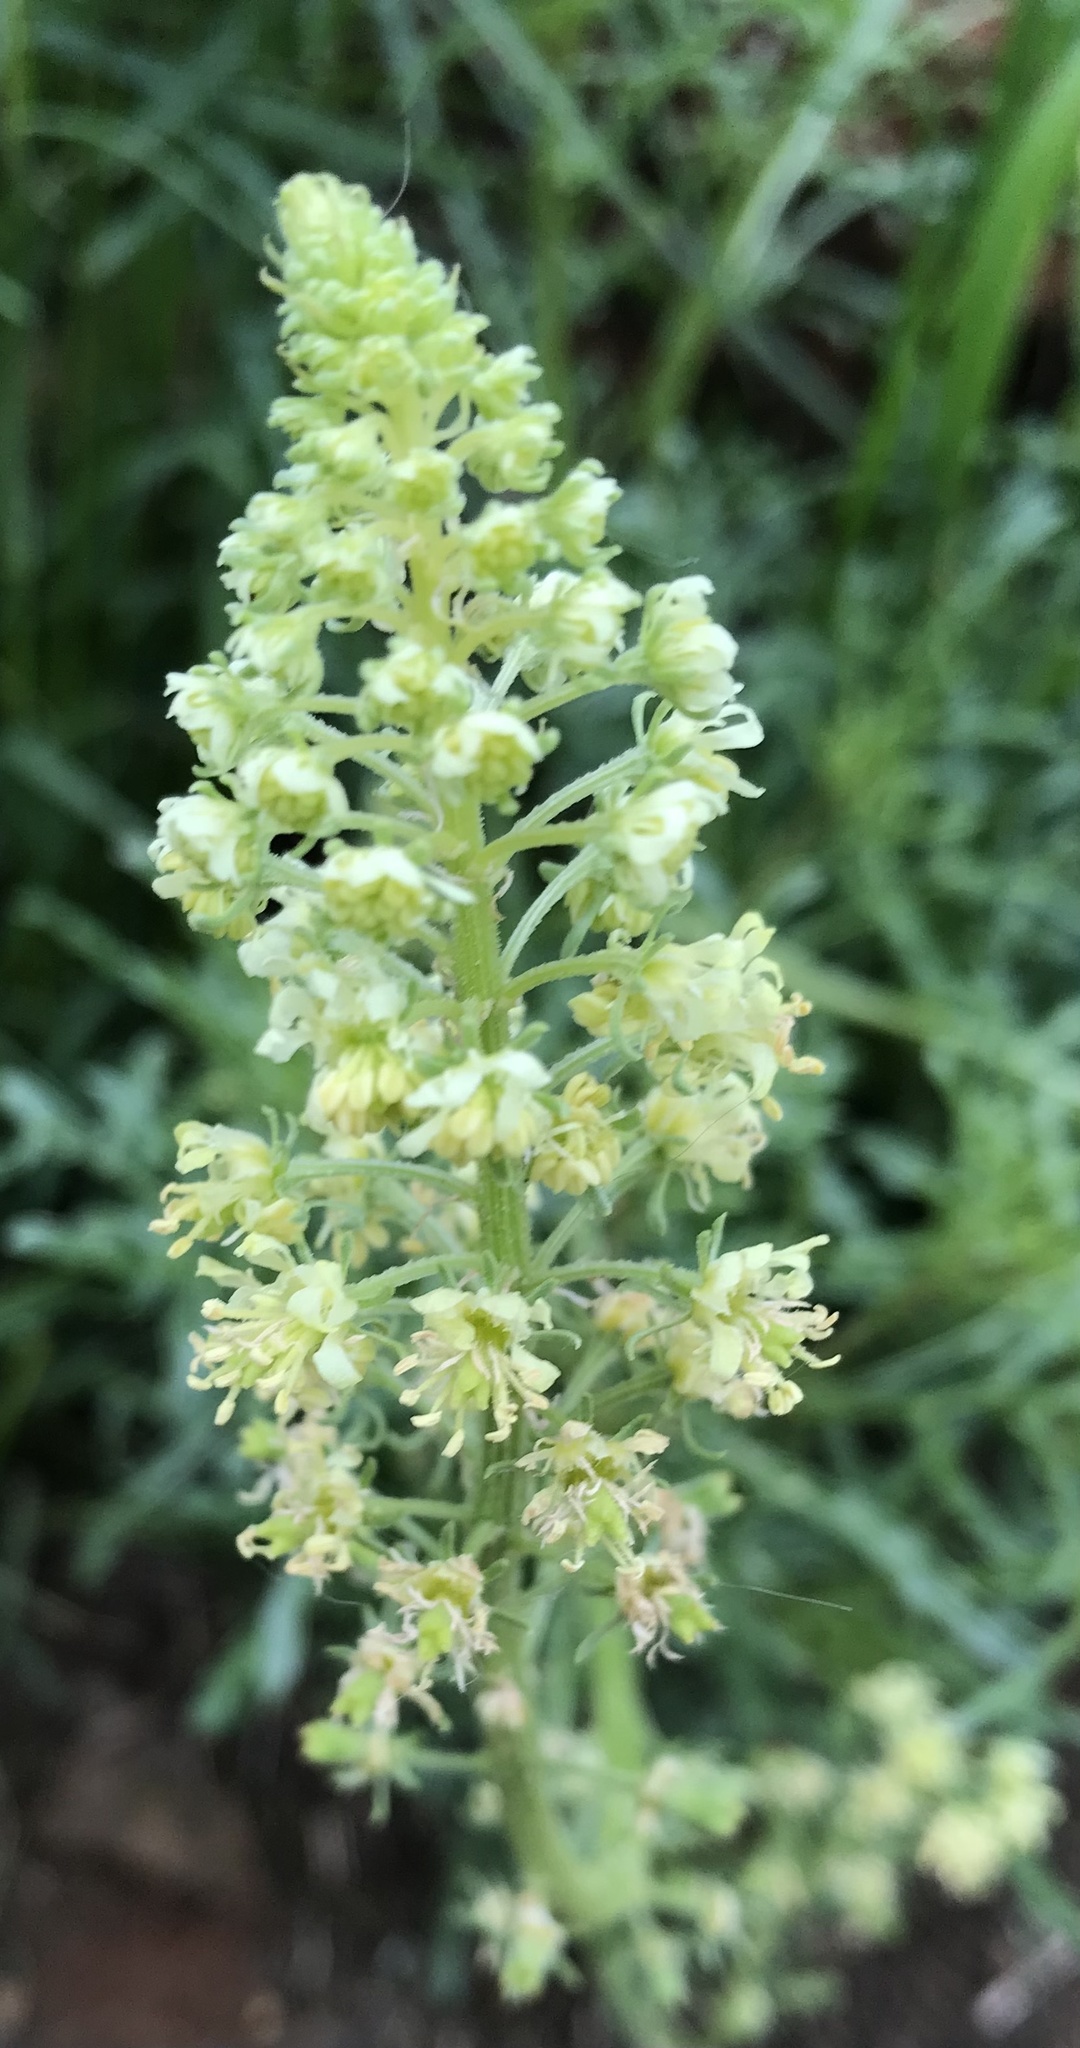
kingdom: Plantae
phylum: Tracheophyta
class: Magnoliopsida
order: Brassicales
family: Resedaceae
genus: Reseda
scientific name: Reseda lutea
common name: Wild mignonette
